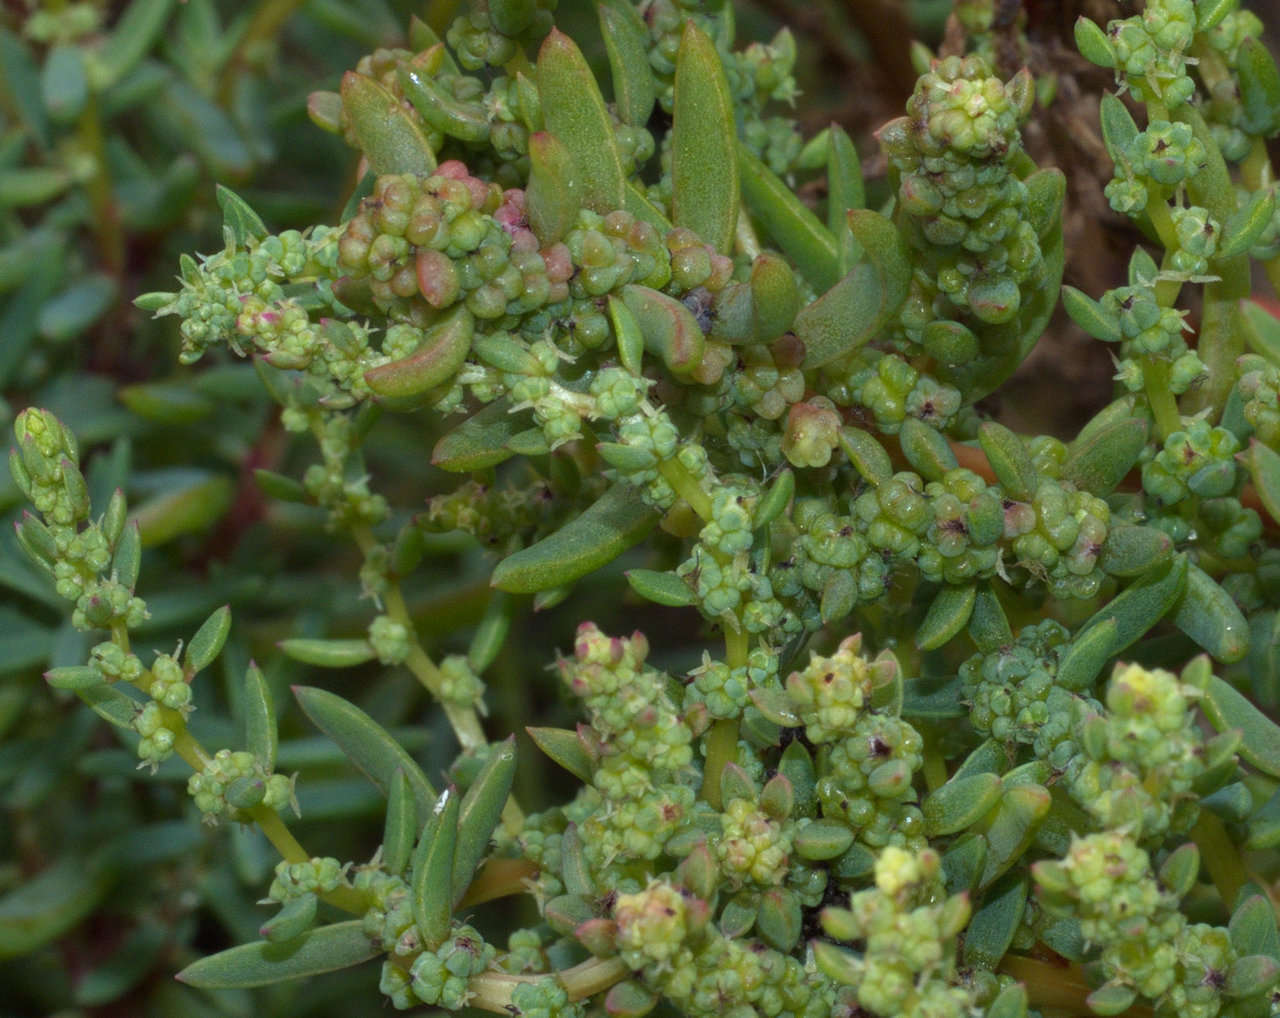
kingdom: Plantae
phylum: Tracheophyta
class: Magnoliopsida
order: Caryophyllales
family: Amaranthaceae
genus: Suaeda
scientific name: Suaeda australis
